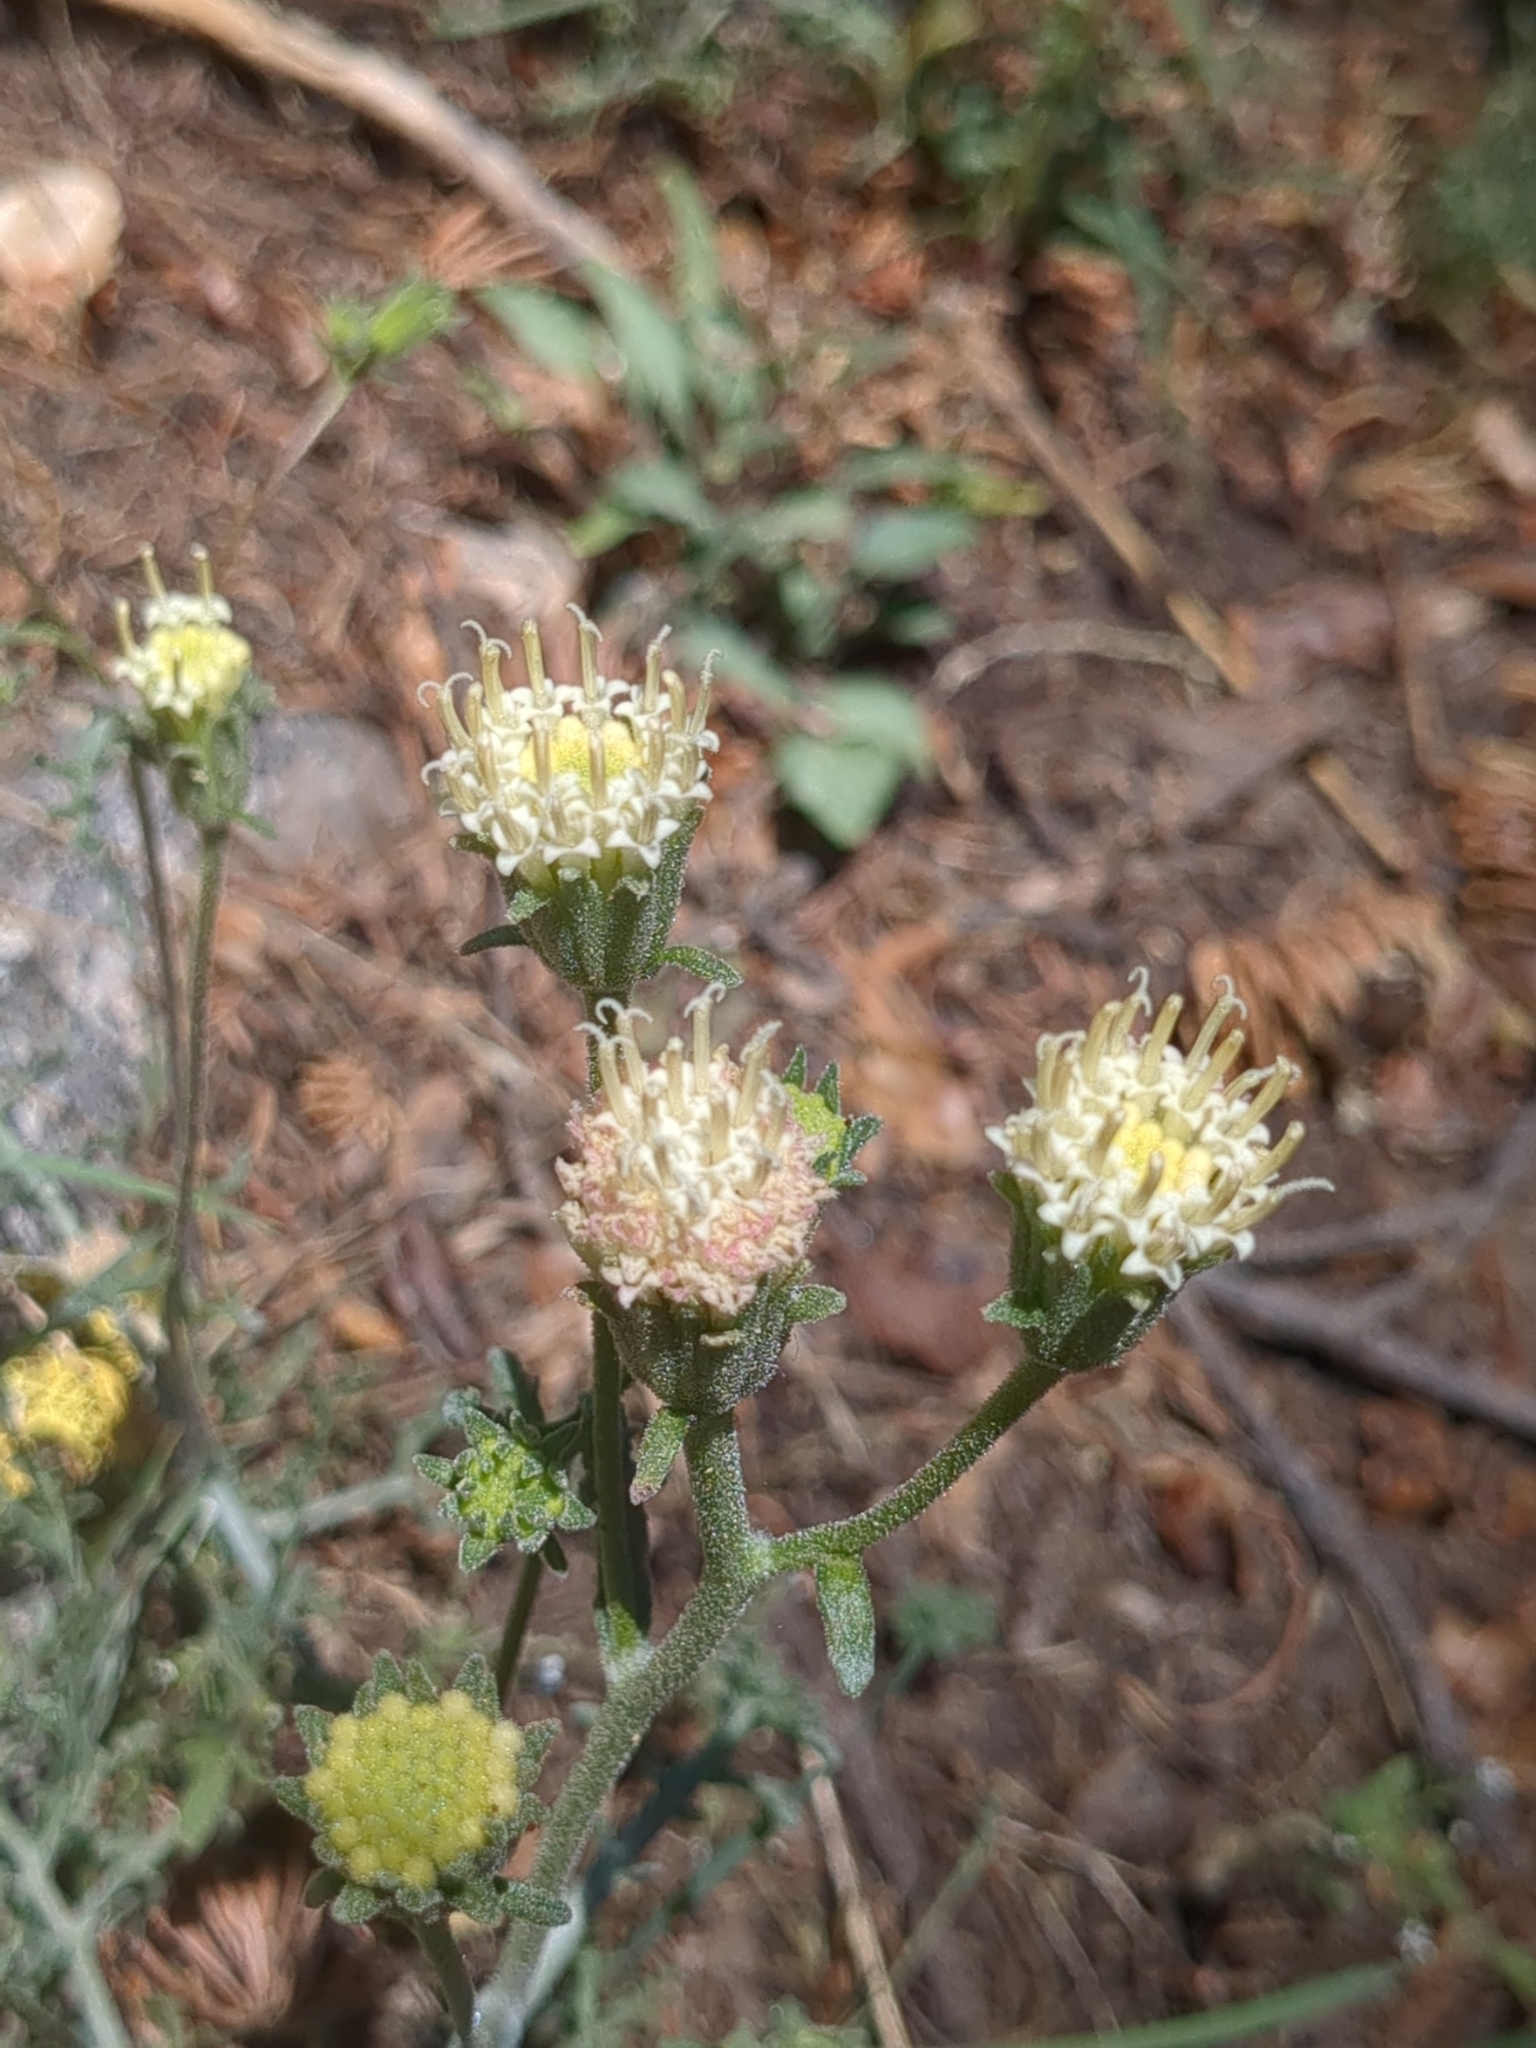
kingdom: Plantae
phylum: Tracheophyta
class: Magnoliopsida
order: Asterales
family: Asteraceae
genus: Chaenactis
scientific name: Chaenactis douglasii
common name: Hoary pincushion
